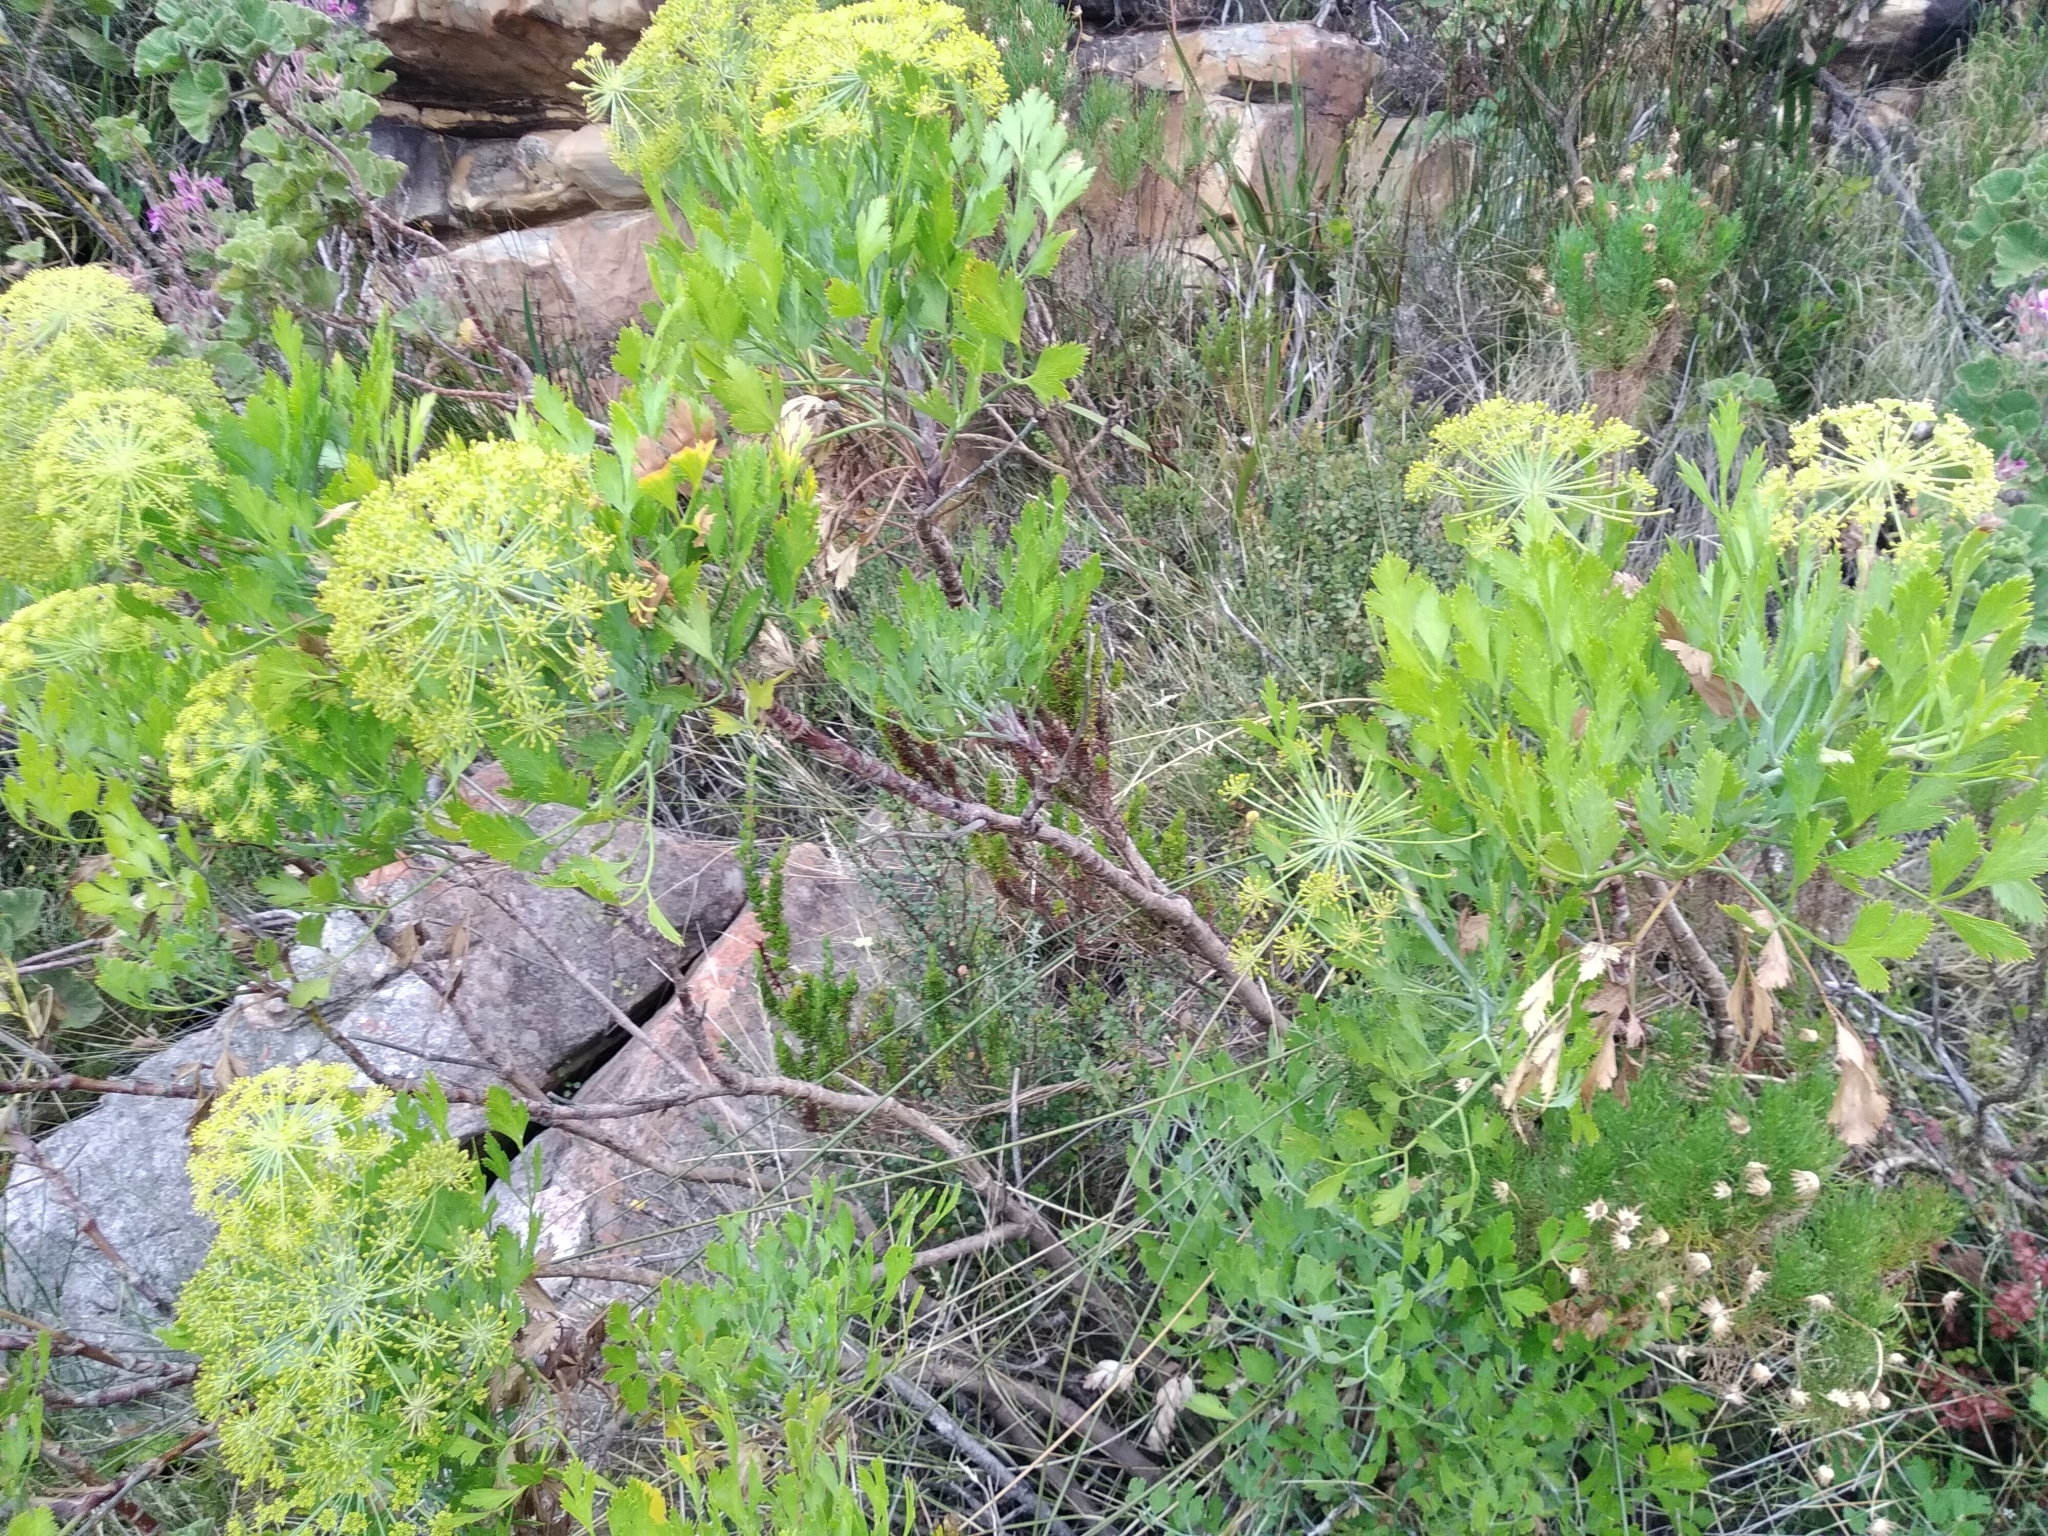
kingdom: Plantae
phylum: Tracheophyta
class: Magnoliopsida
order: Apiales
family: Apiaceae
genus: Notobubon
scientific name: Notobubon galbanum
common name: Blisterbush
